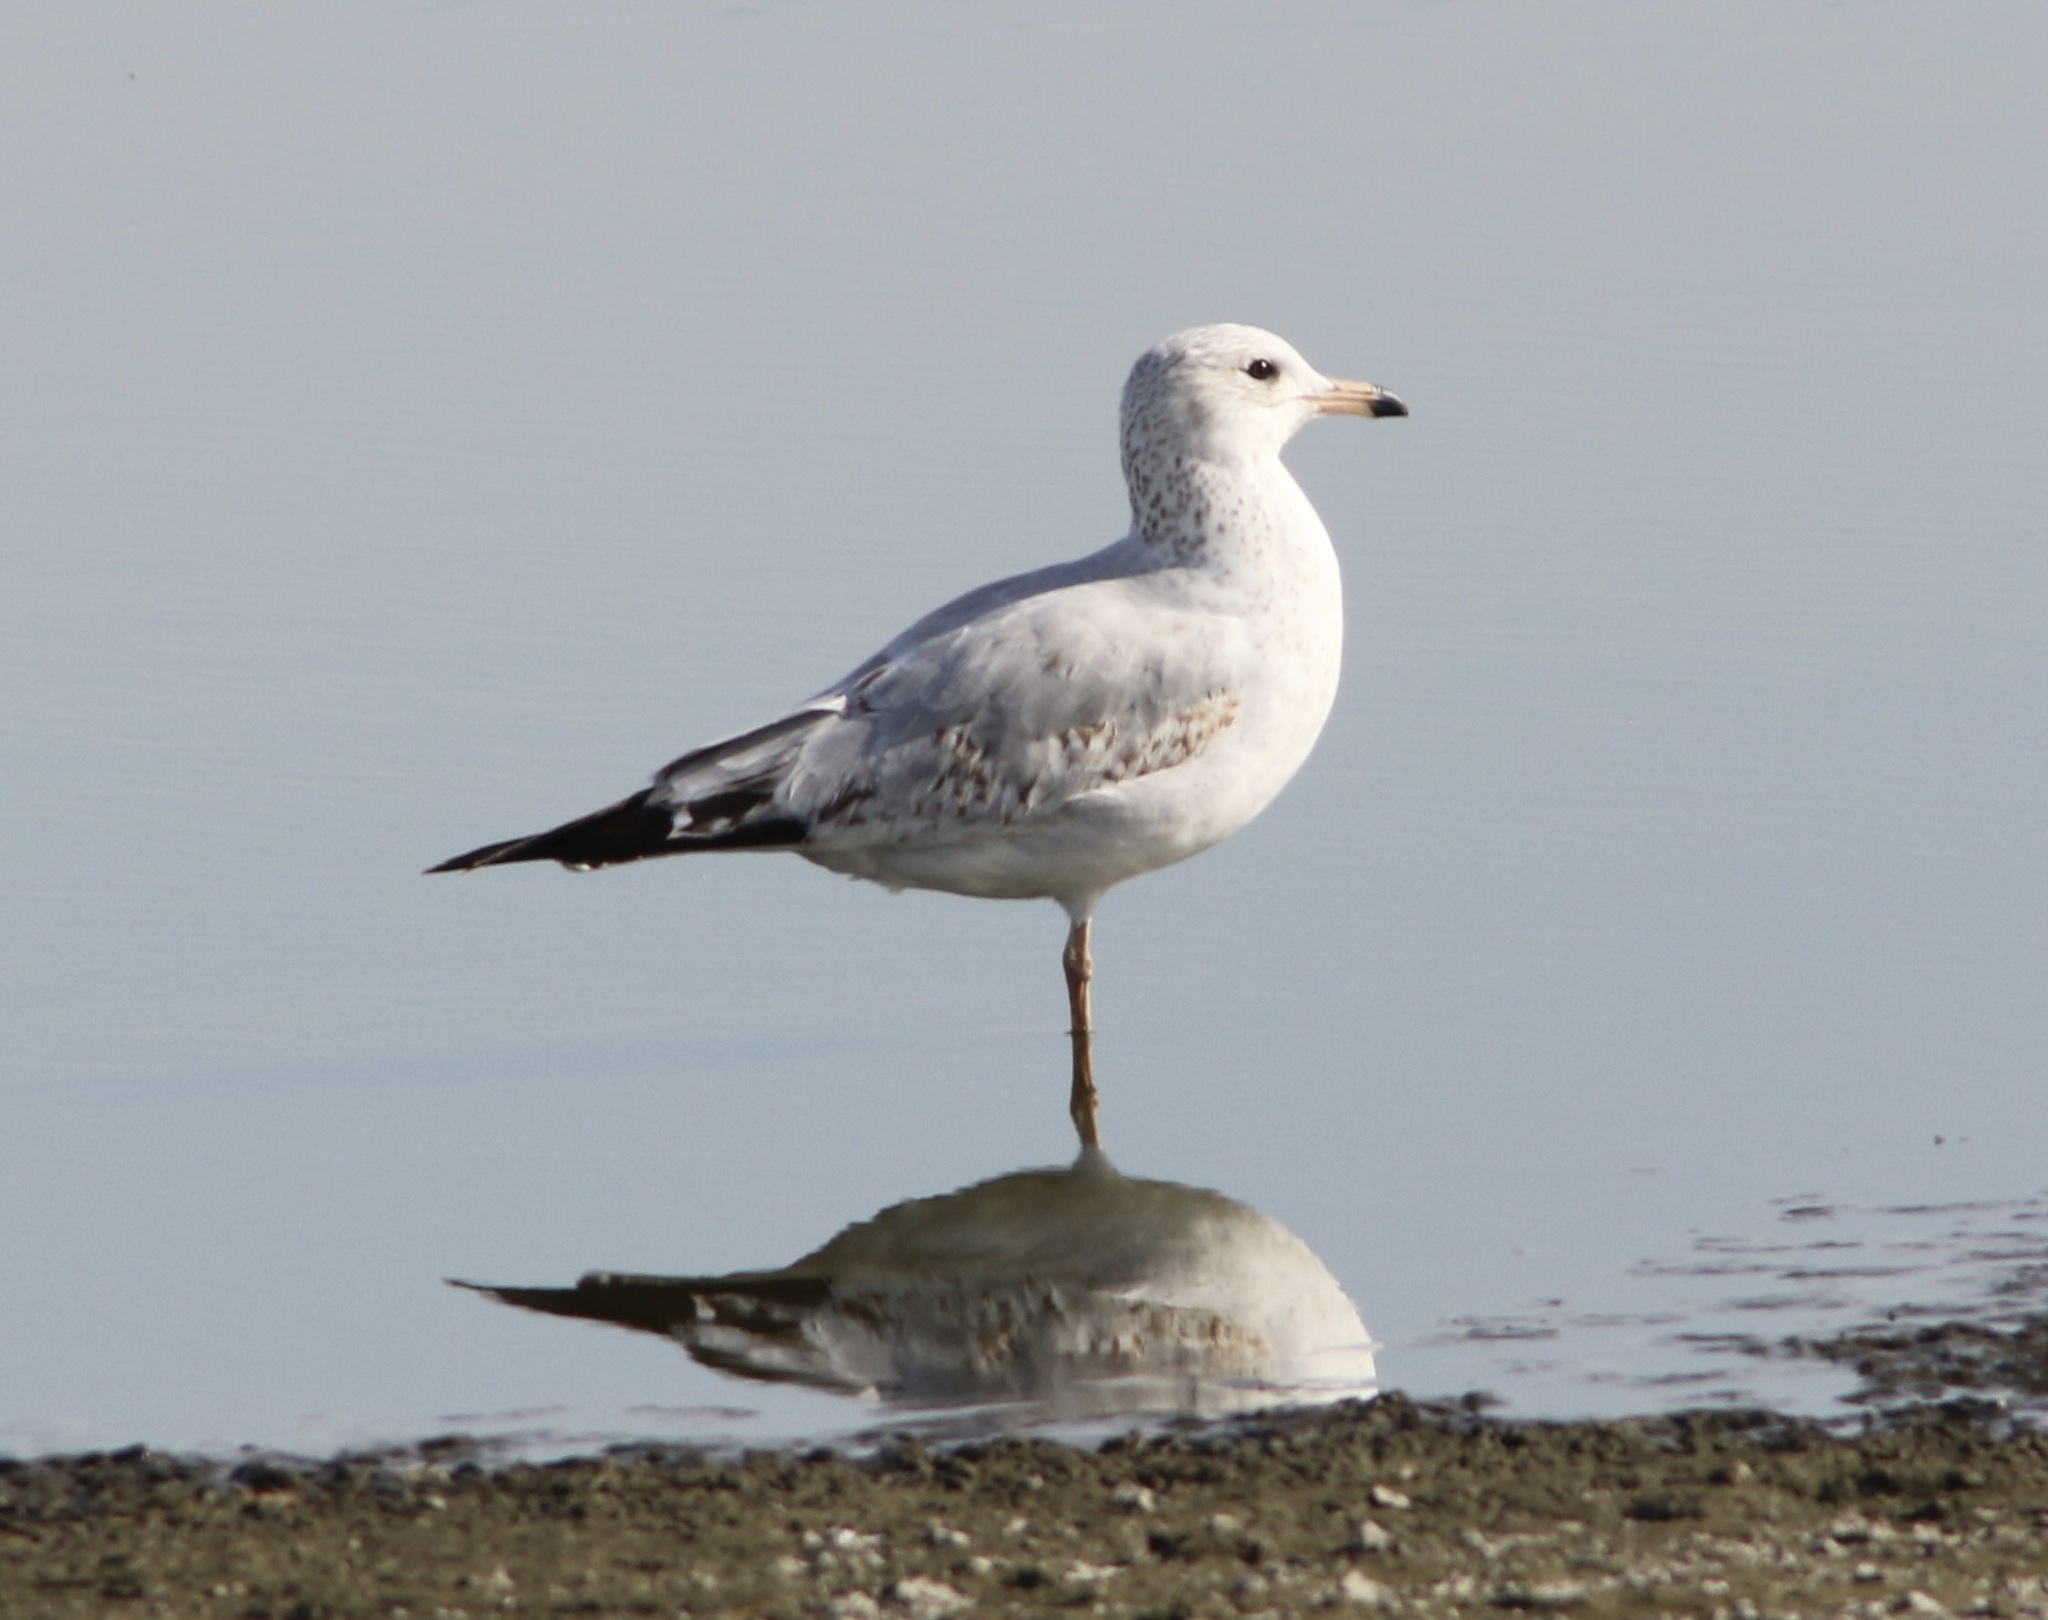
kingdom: Animalia
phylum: Chordata
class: Aves
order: Charadriiformes
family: Laridae
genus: Larus
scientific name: Larus delawarensis
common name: Ring-billed gull
